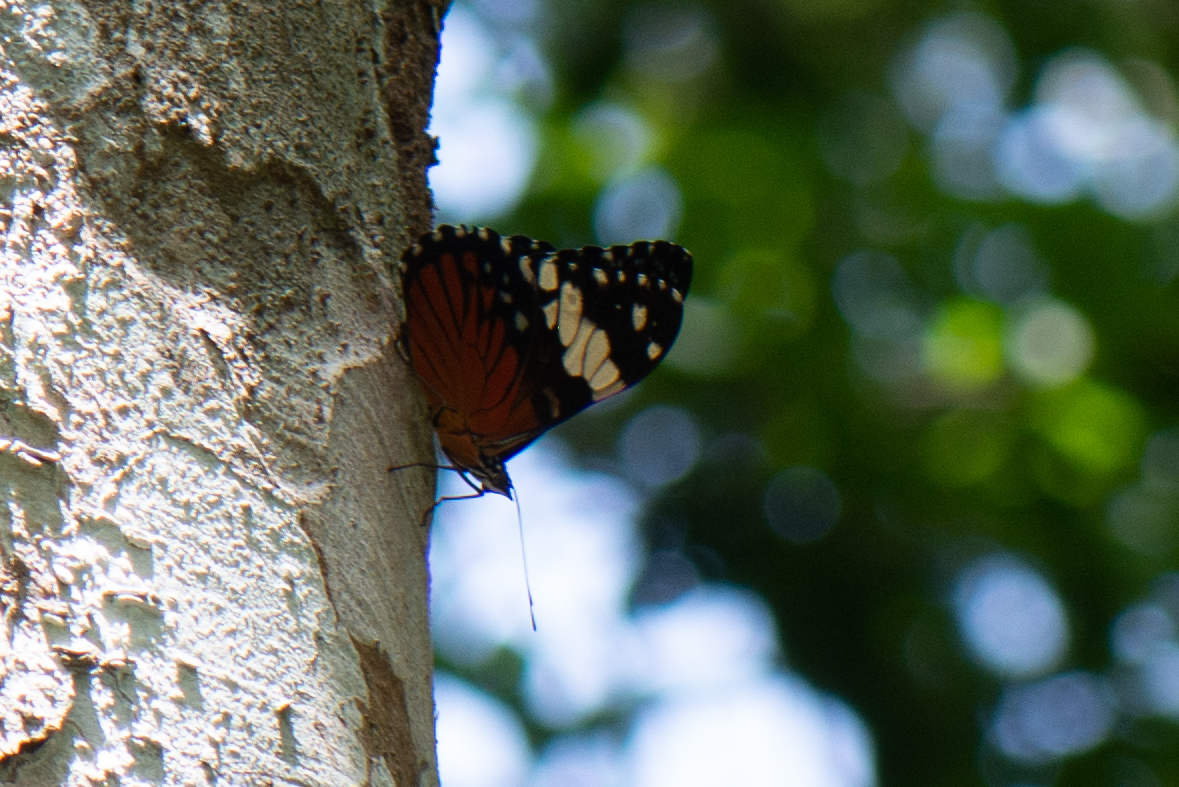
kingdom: Animalia
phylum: Arthropoda
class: Insecta
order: Lepidoptera
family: Nymphalidae
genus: Hamadryas
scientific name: Hamadryas amphinome
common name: Red cracker
